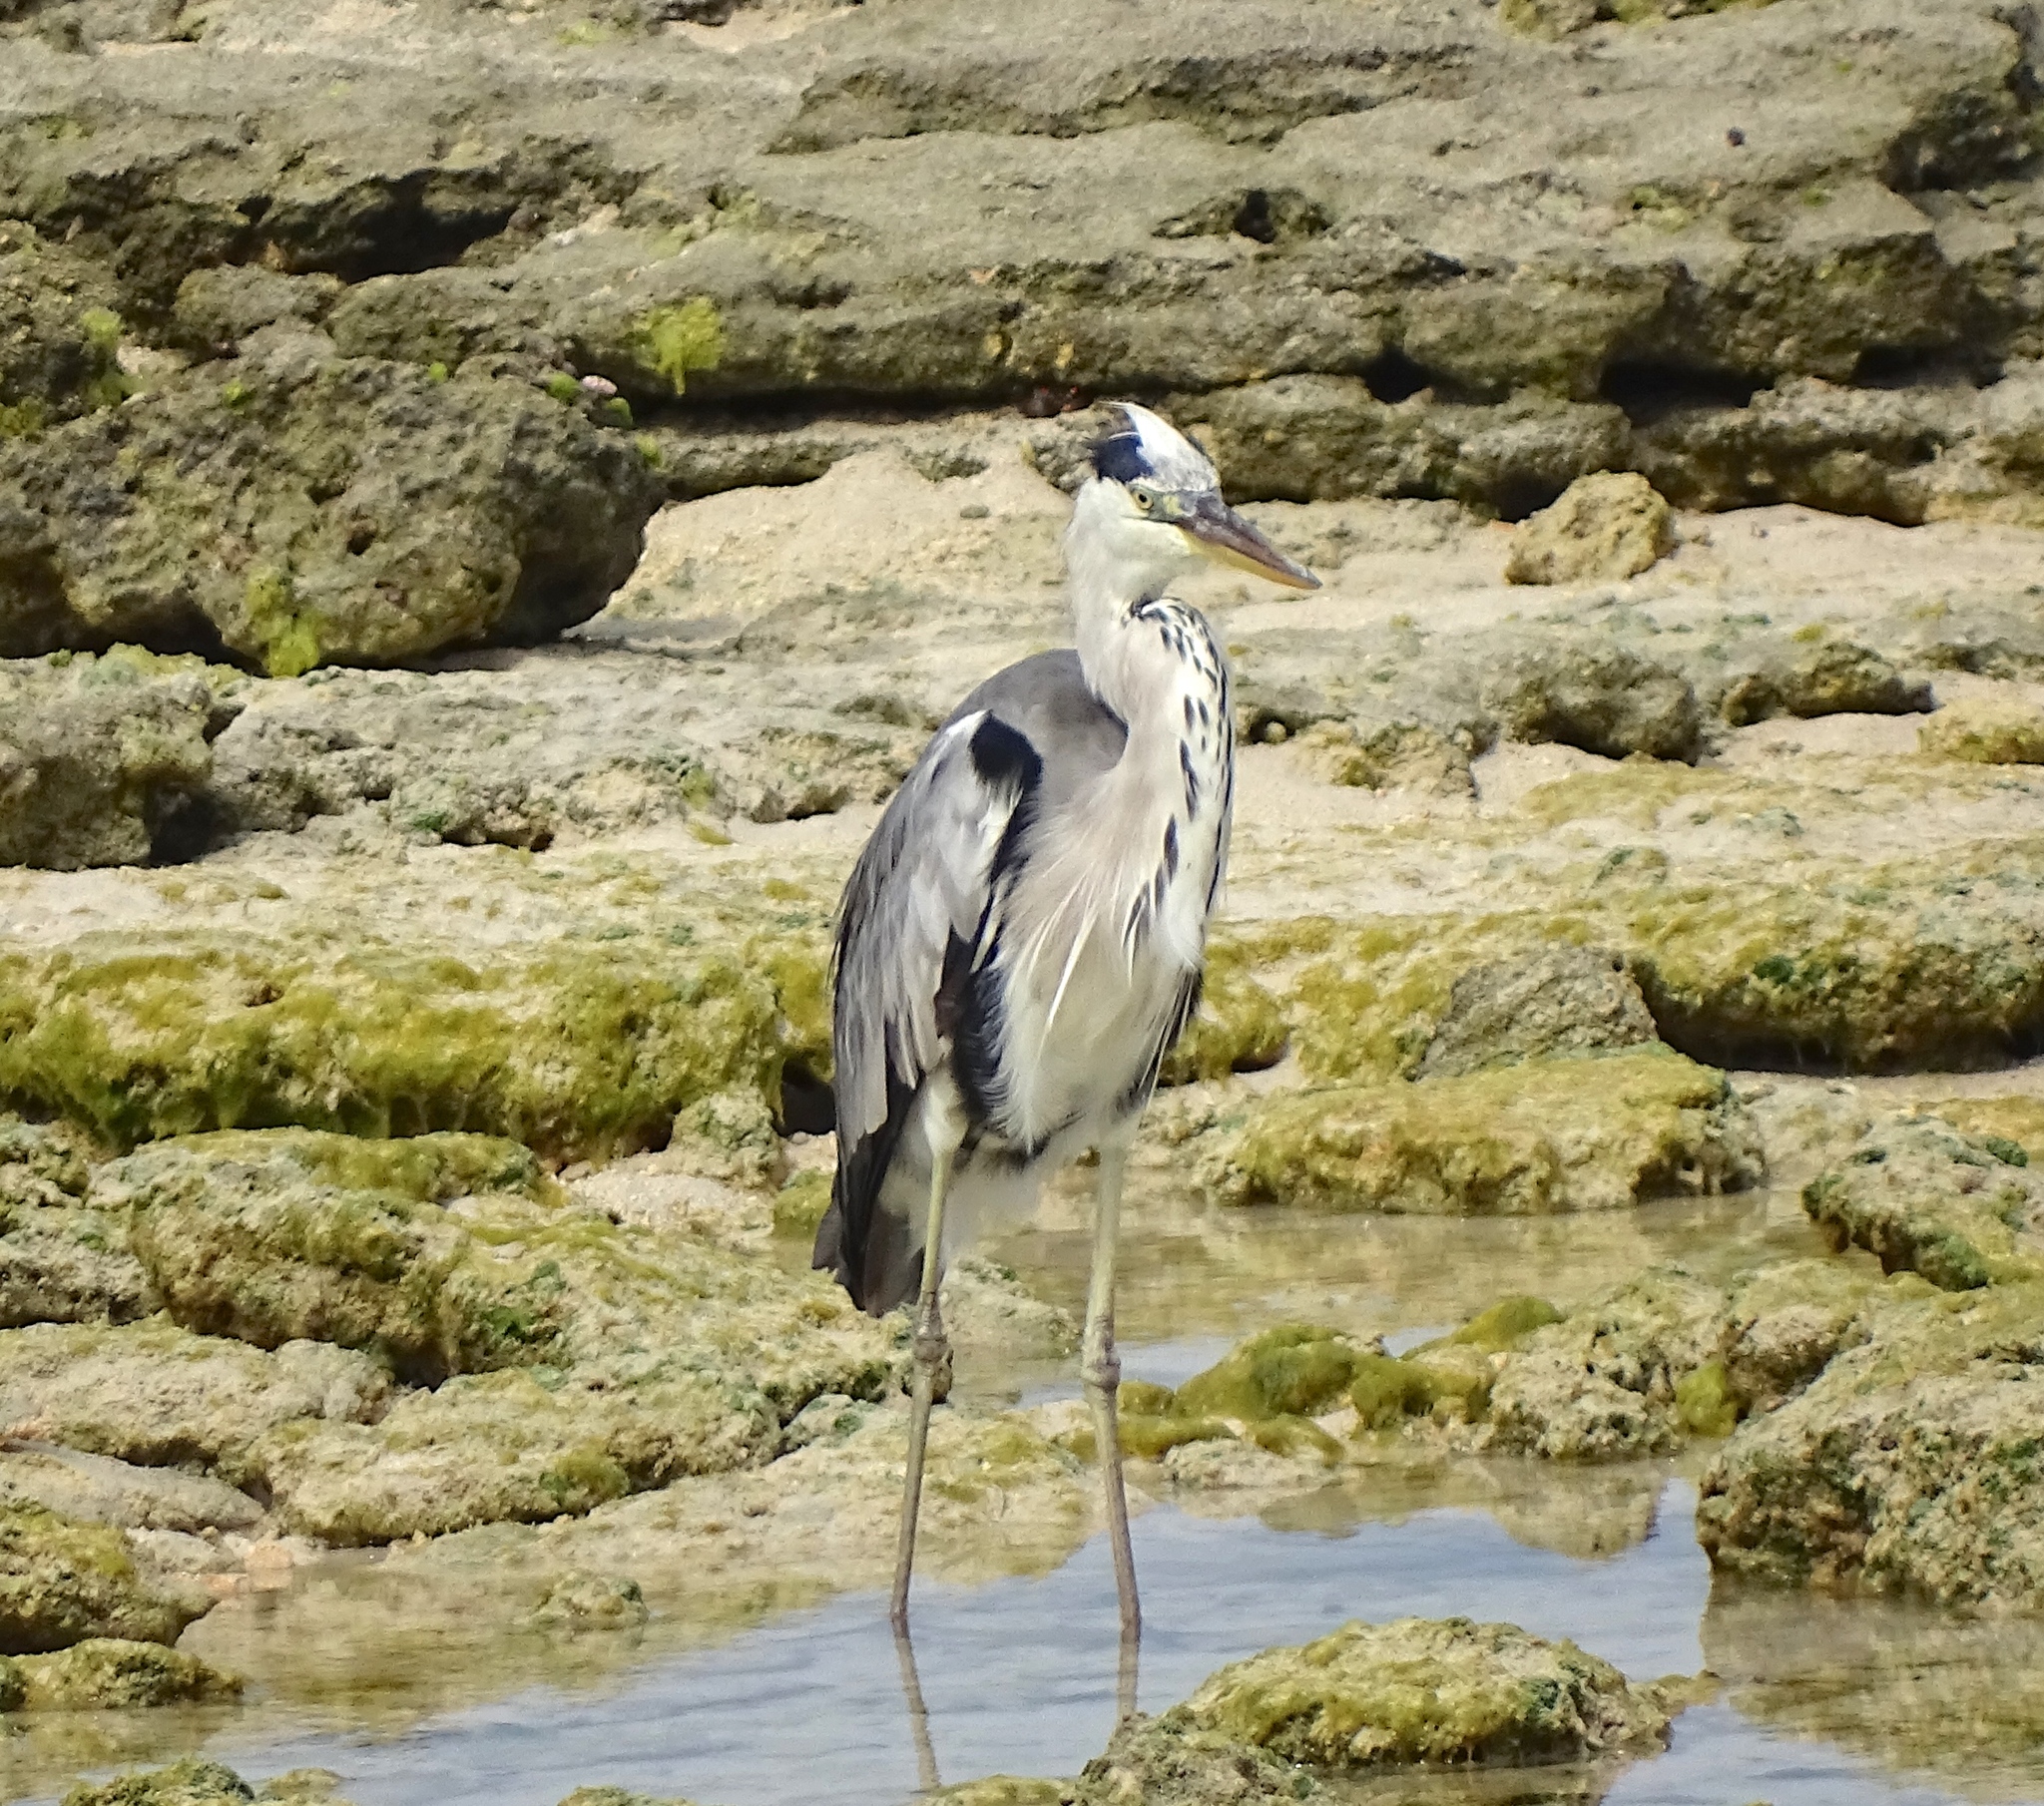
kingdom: Animalia
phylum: Chordata
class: Aves
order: Pelecaniformes
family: Ardeidae
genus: Ardea
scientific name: Ardea cinerea
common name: Grey heron
